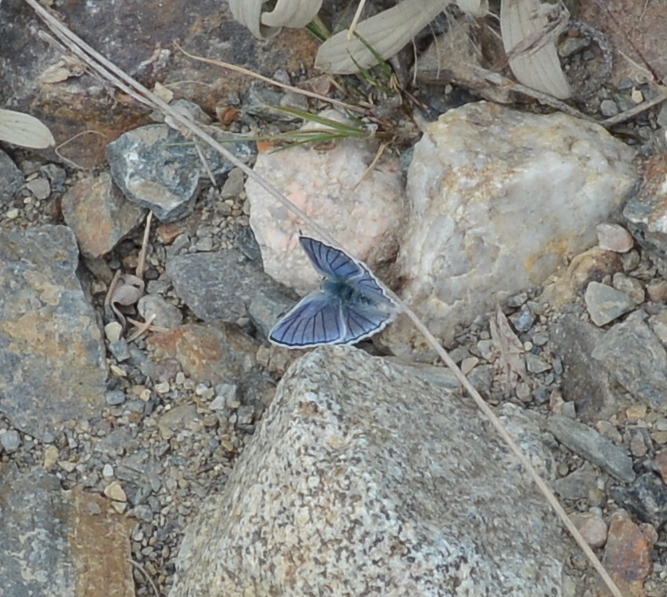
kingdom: Animalia
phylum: Arthropoda
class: Insecta
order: Lepidoptera
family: Lycaenidae
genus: Tharsalea
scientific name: Tharsalea heteronea
